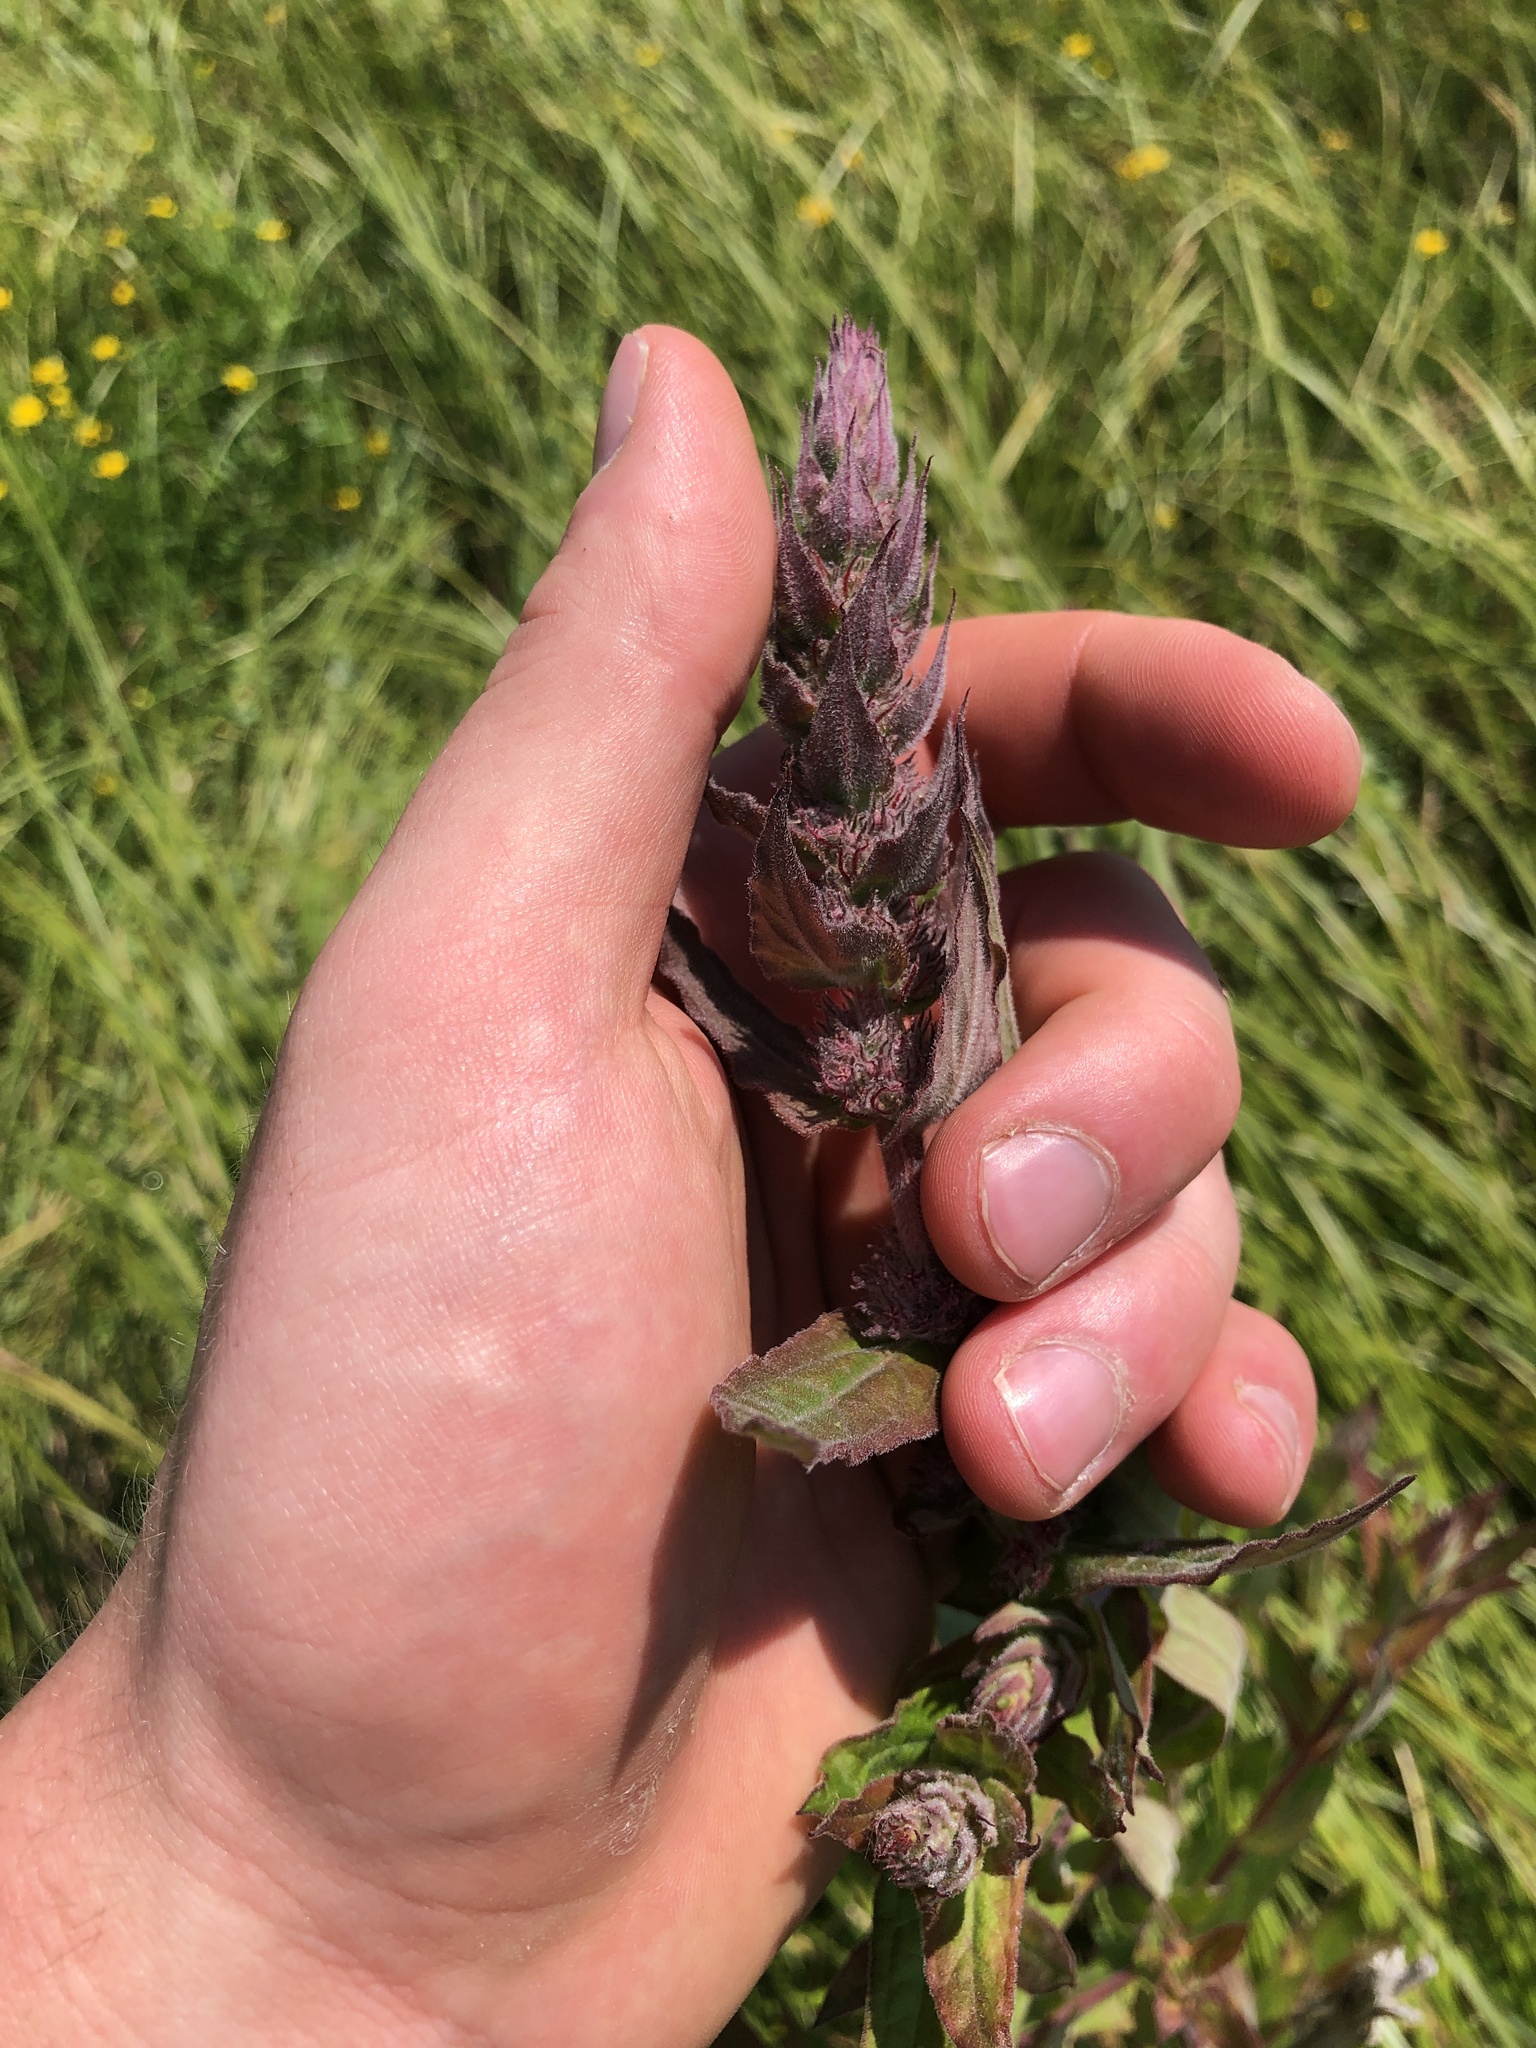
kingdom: Plantae
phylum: Tracheophyta
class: Magnoliopsida
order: Myrtales
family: Lythraceae
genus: Lythrum
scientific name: Lythrum salicaria
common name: Purple loosestrife
